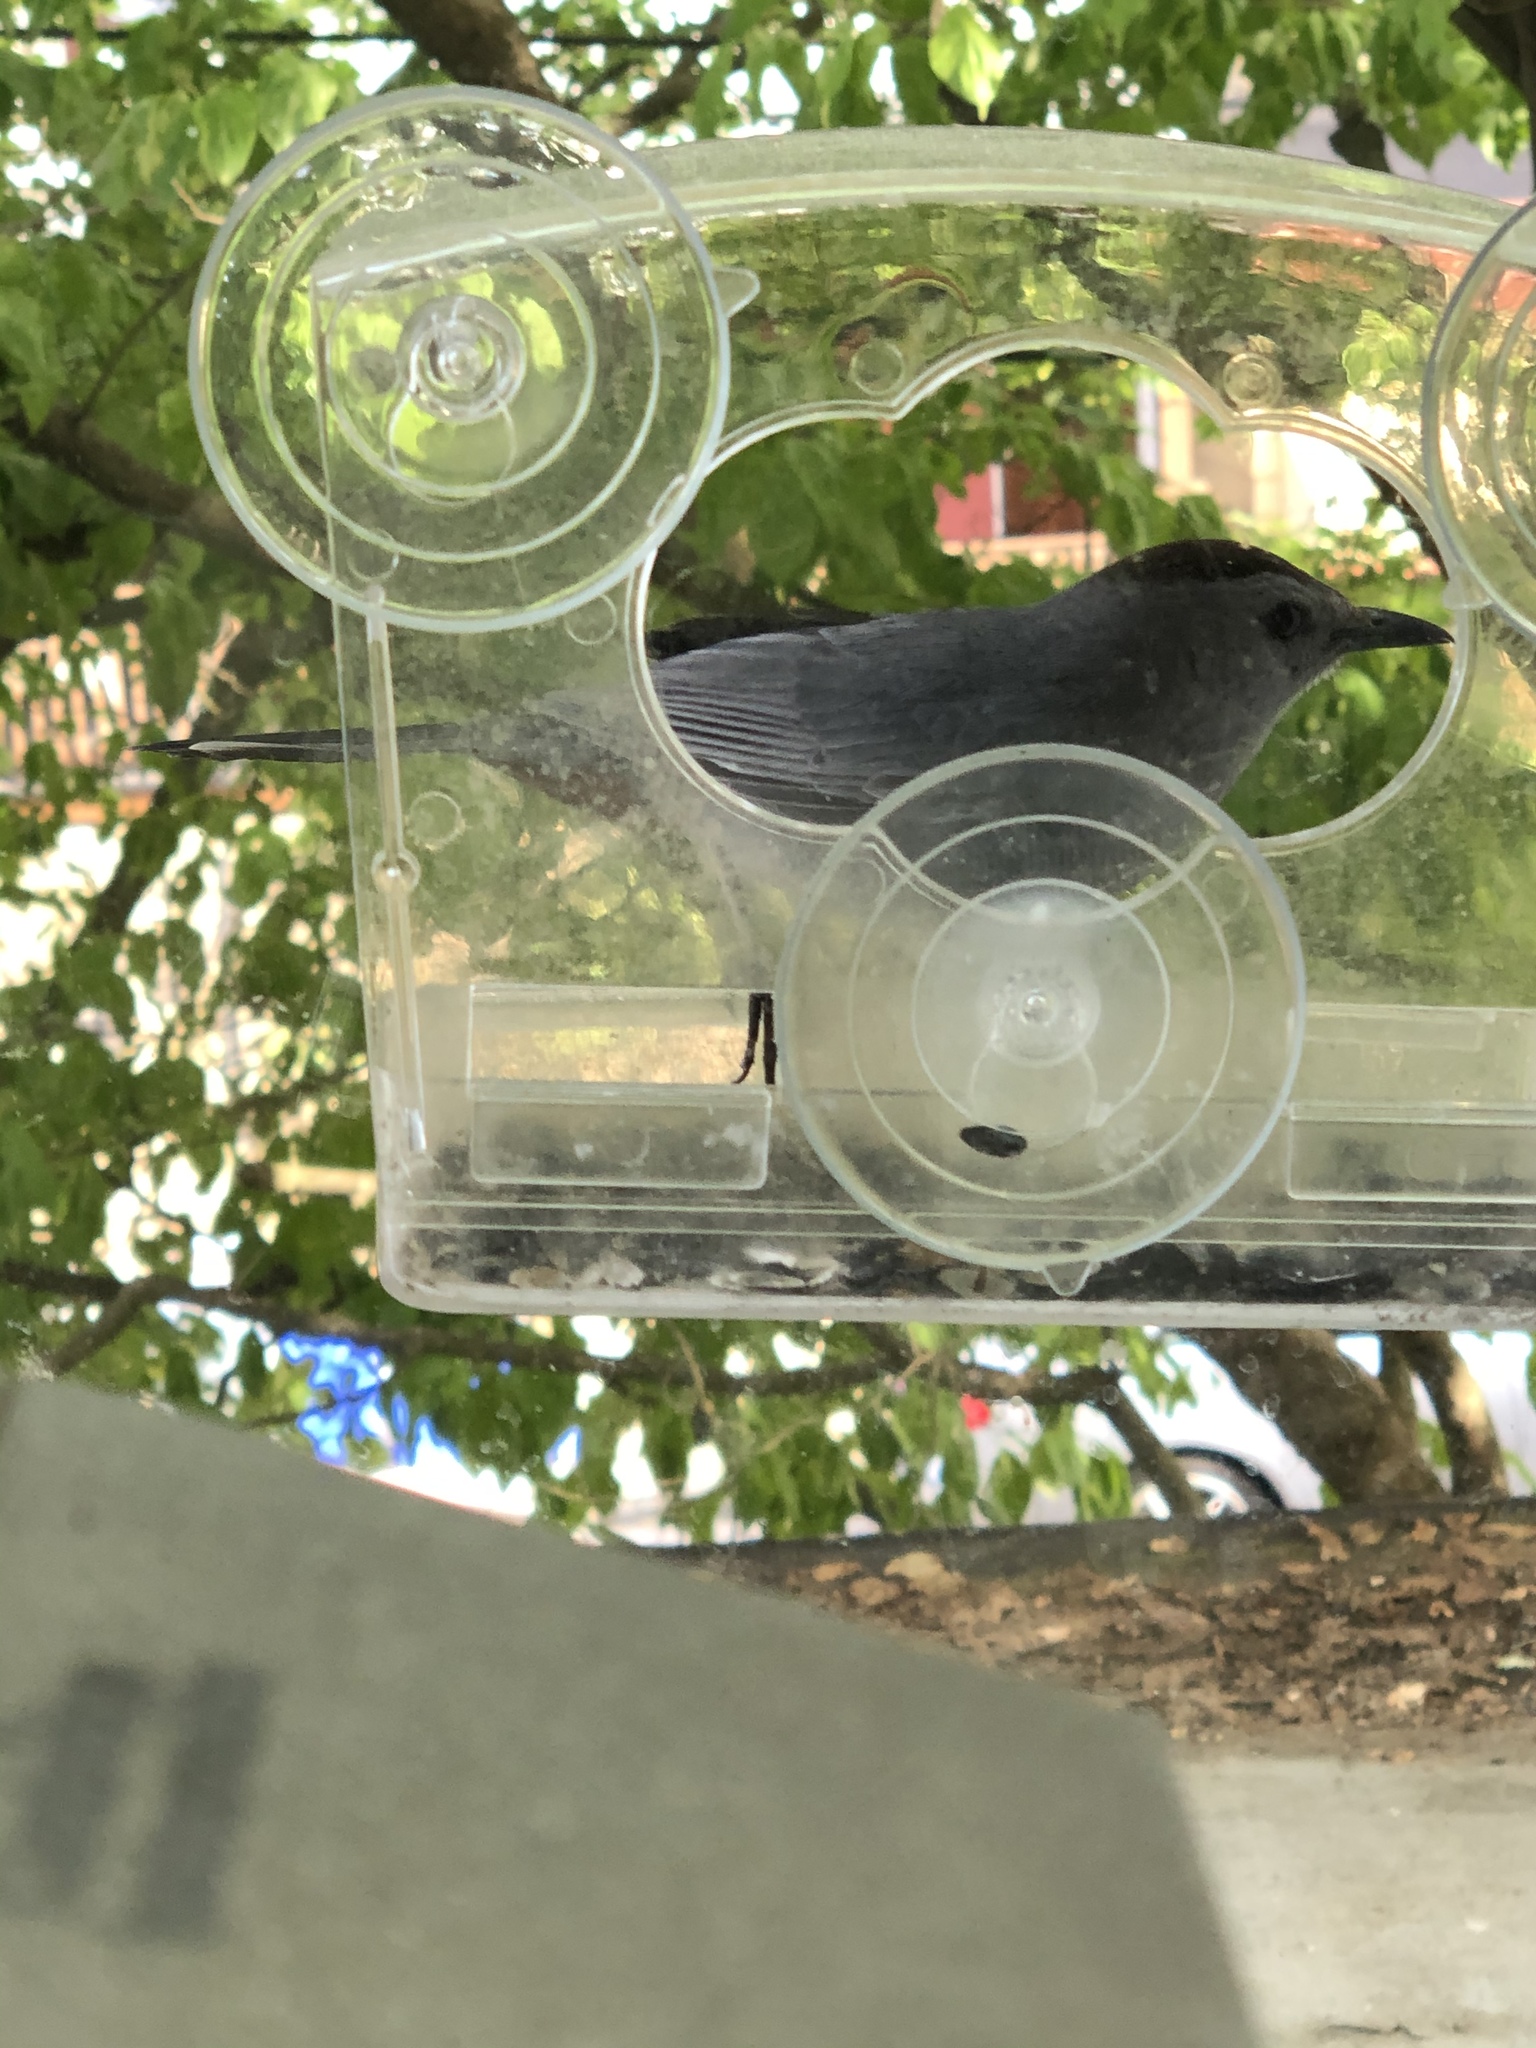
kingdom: Animalia
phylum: Chordata
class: Aves
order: Passeriformes
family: Mimidae
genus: Dumetella
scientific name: Dumetella carolinensis
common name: Gray catbird
